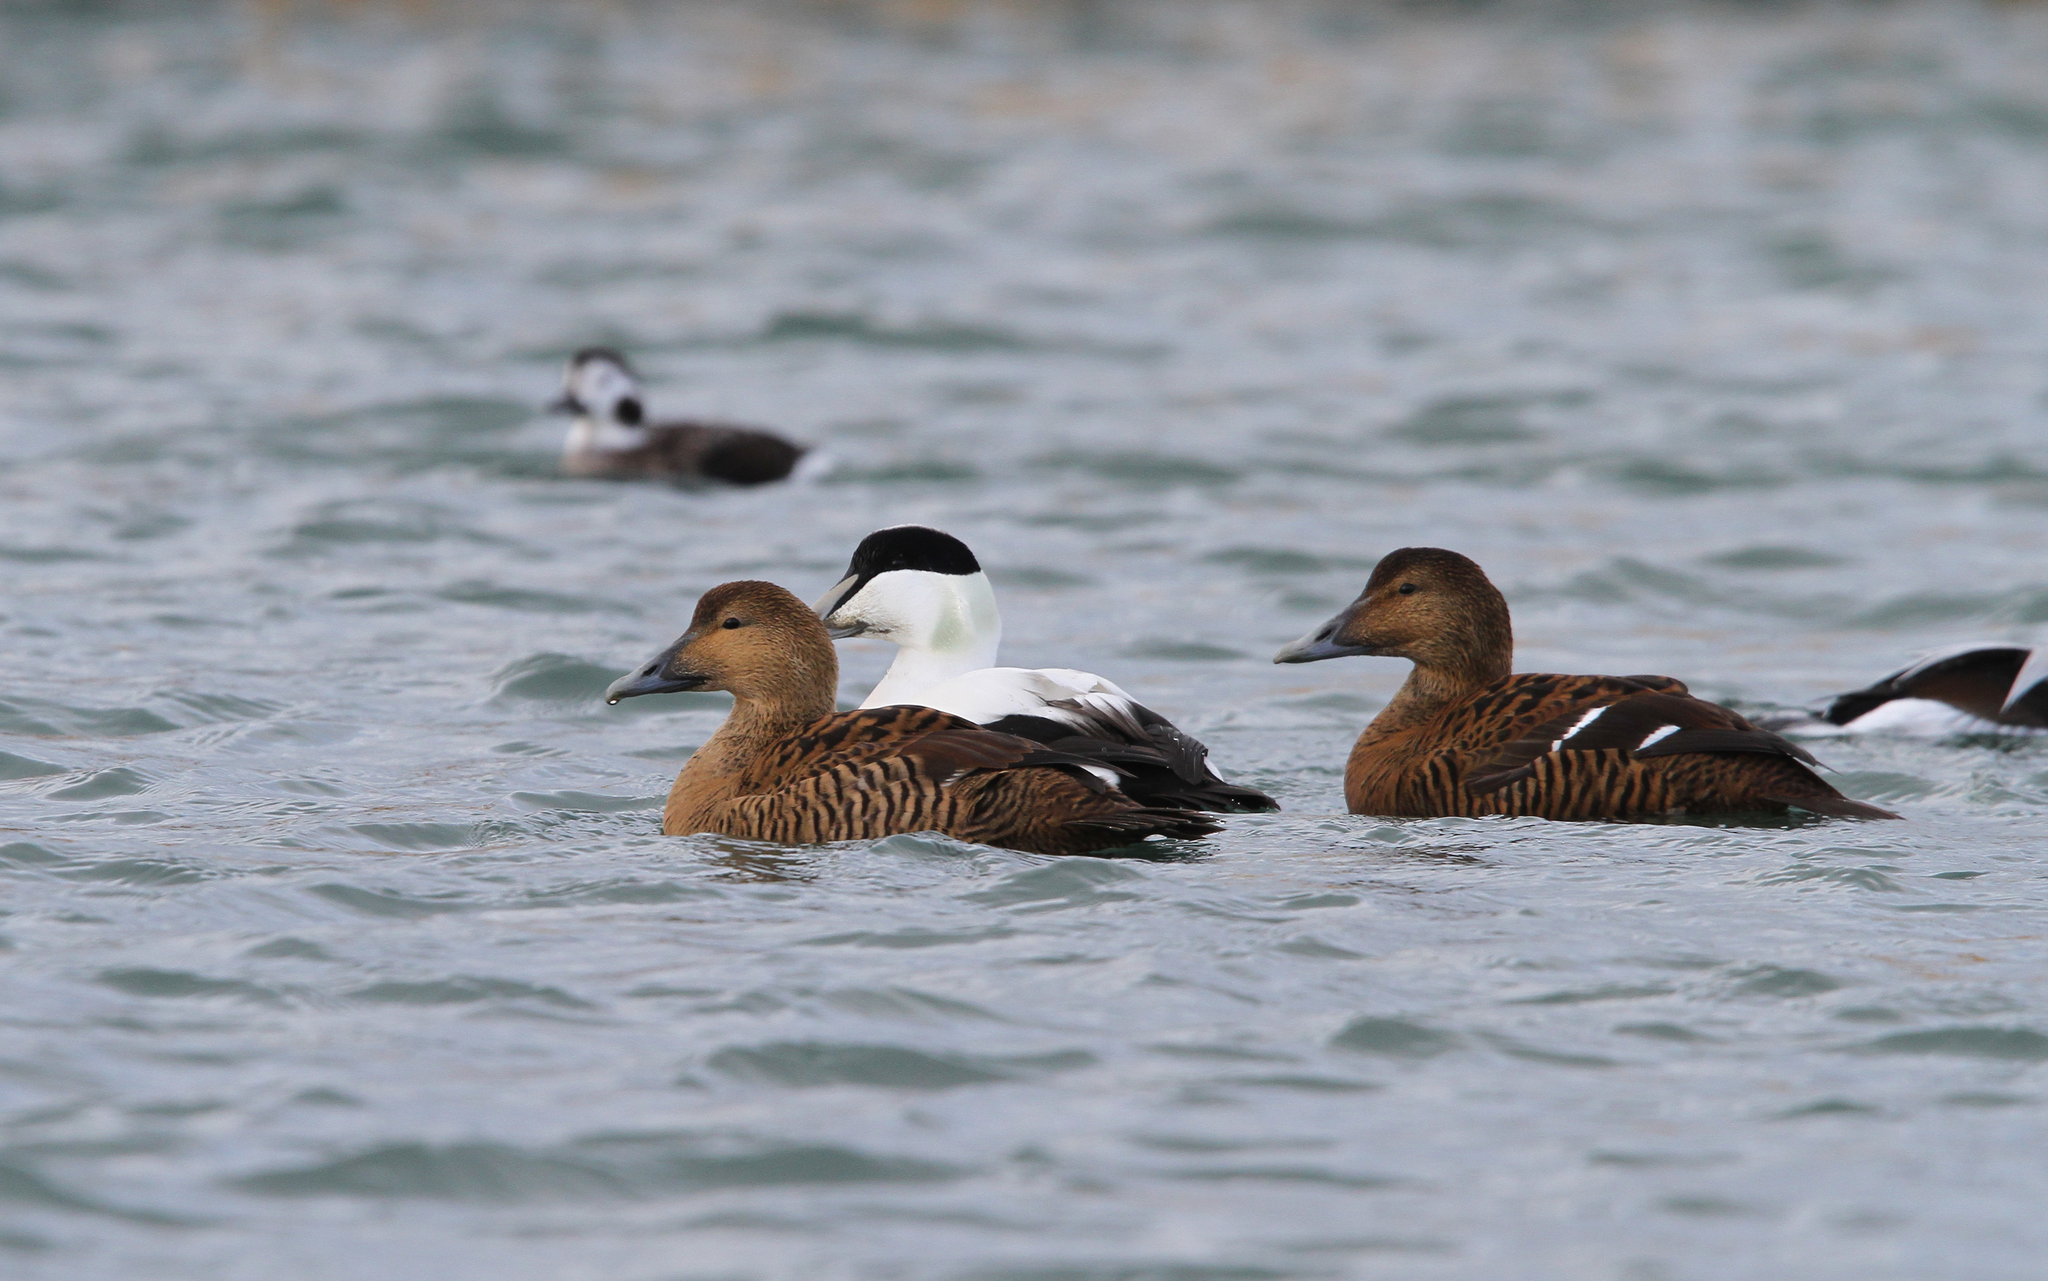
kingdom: Animalia
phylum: Chordata
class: Aves
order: Anseriformes
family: Anatidae
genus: Somateria
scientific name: Somateria mollissima
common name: Common eider
